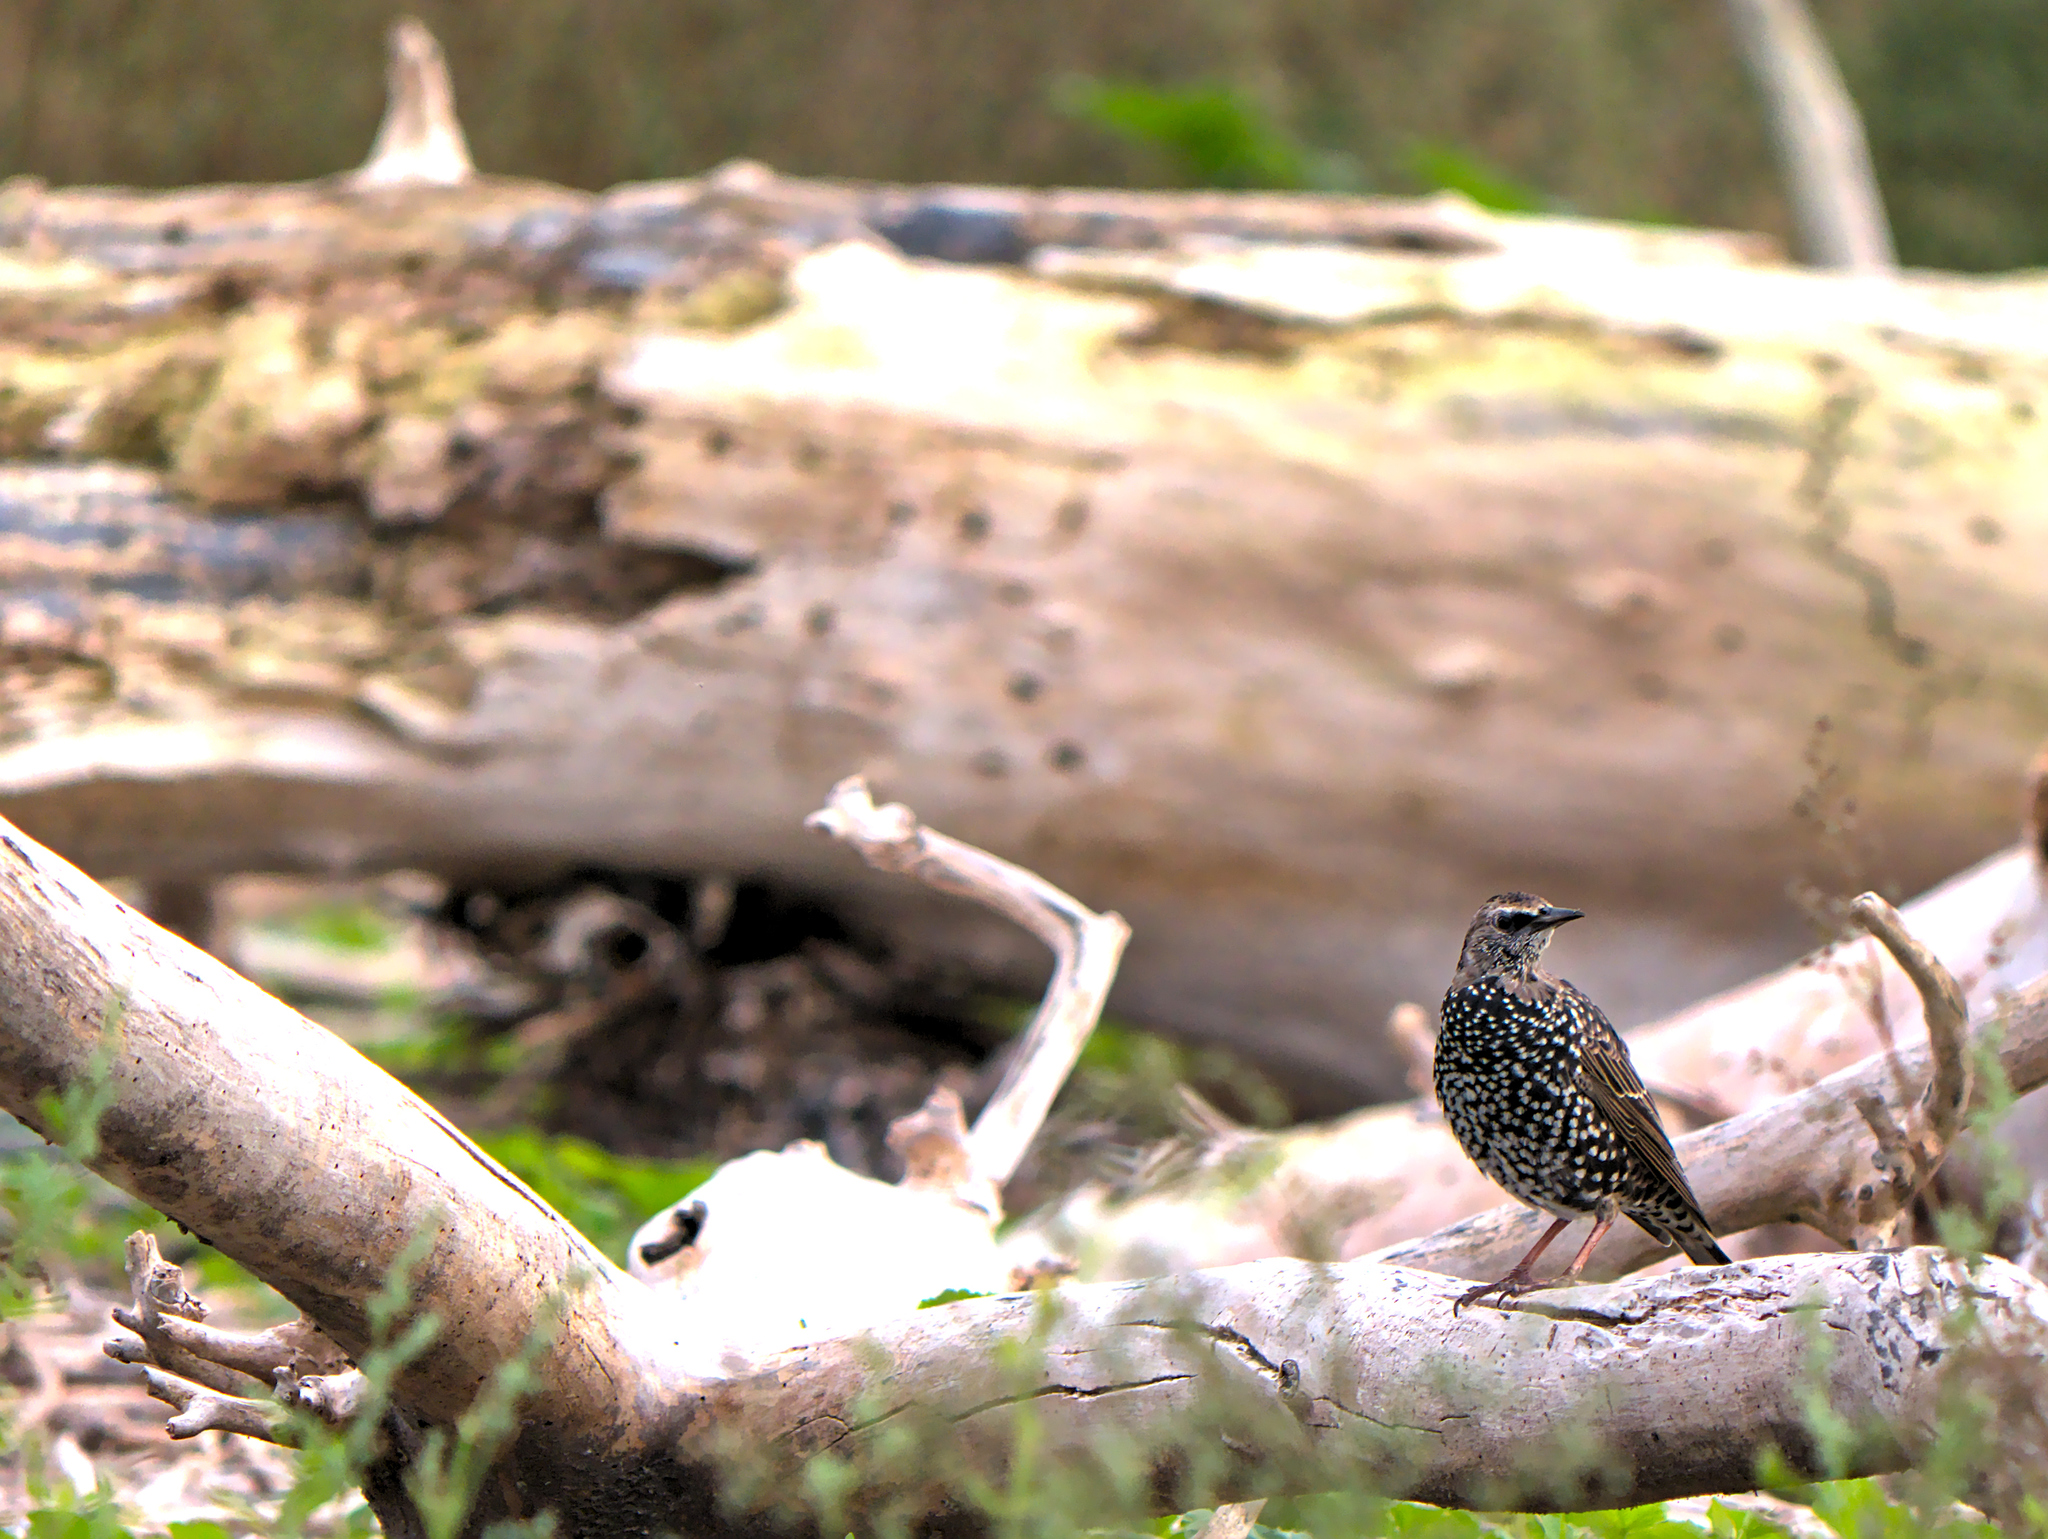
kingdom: Animalia
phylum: Chordata
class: Aves
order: Passeriformes
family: Sturnidae
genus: Sturnus
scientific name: Sturnus vulgaris
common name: Common starling
